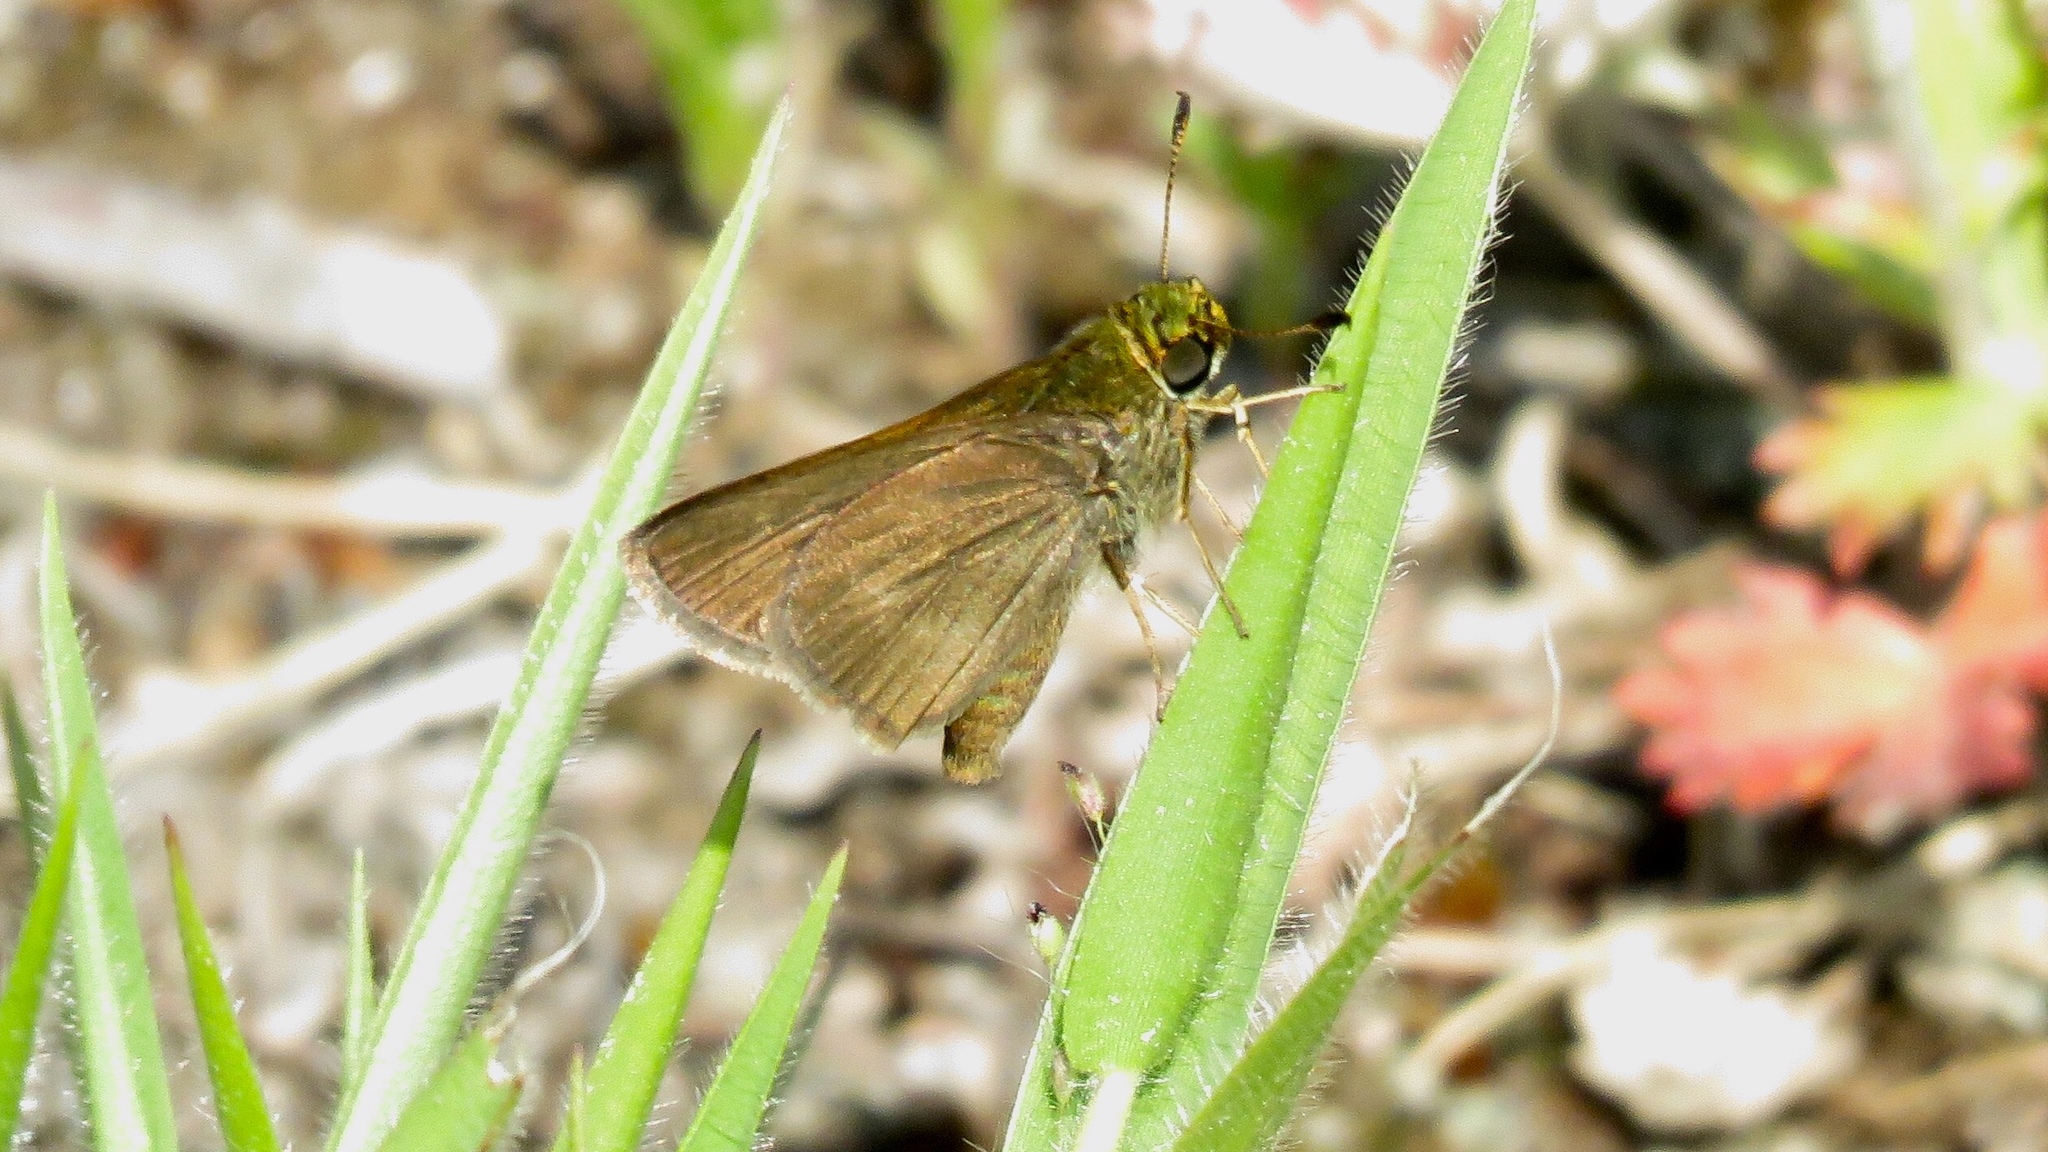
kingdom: Animalia
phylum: Arthropoda
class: Insecta
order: Lepidoptera
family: Hesperiidae
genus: Euphyes
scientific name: Euphyes vestris
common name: Dun skipper
